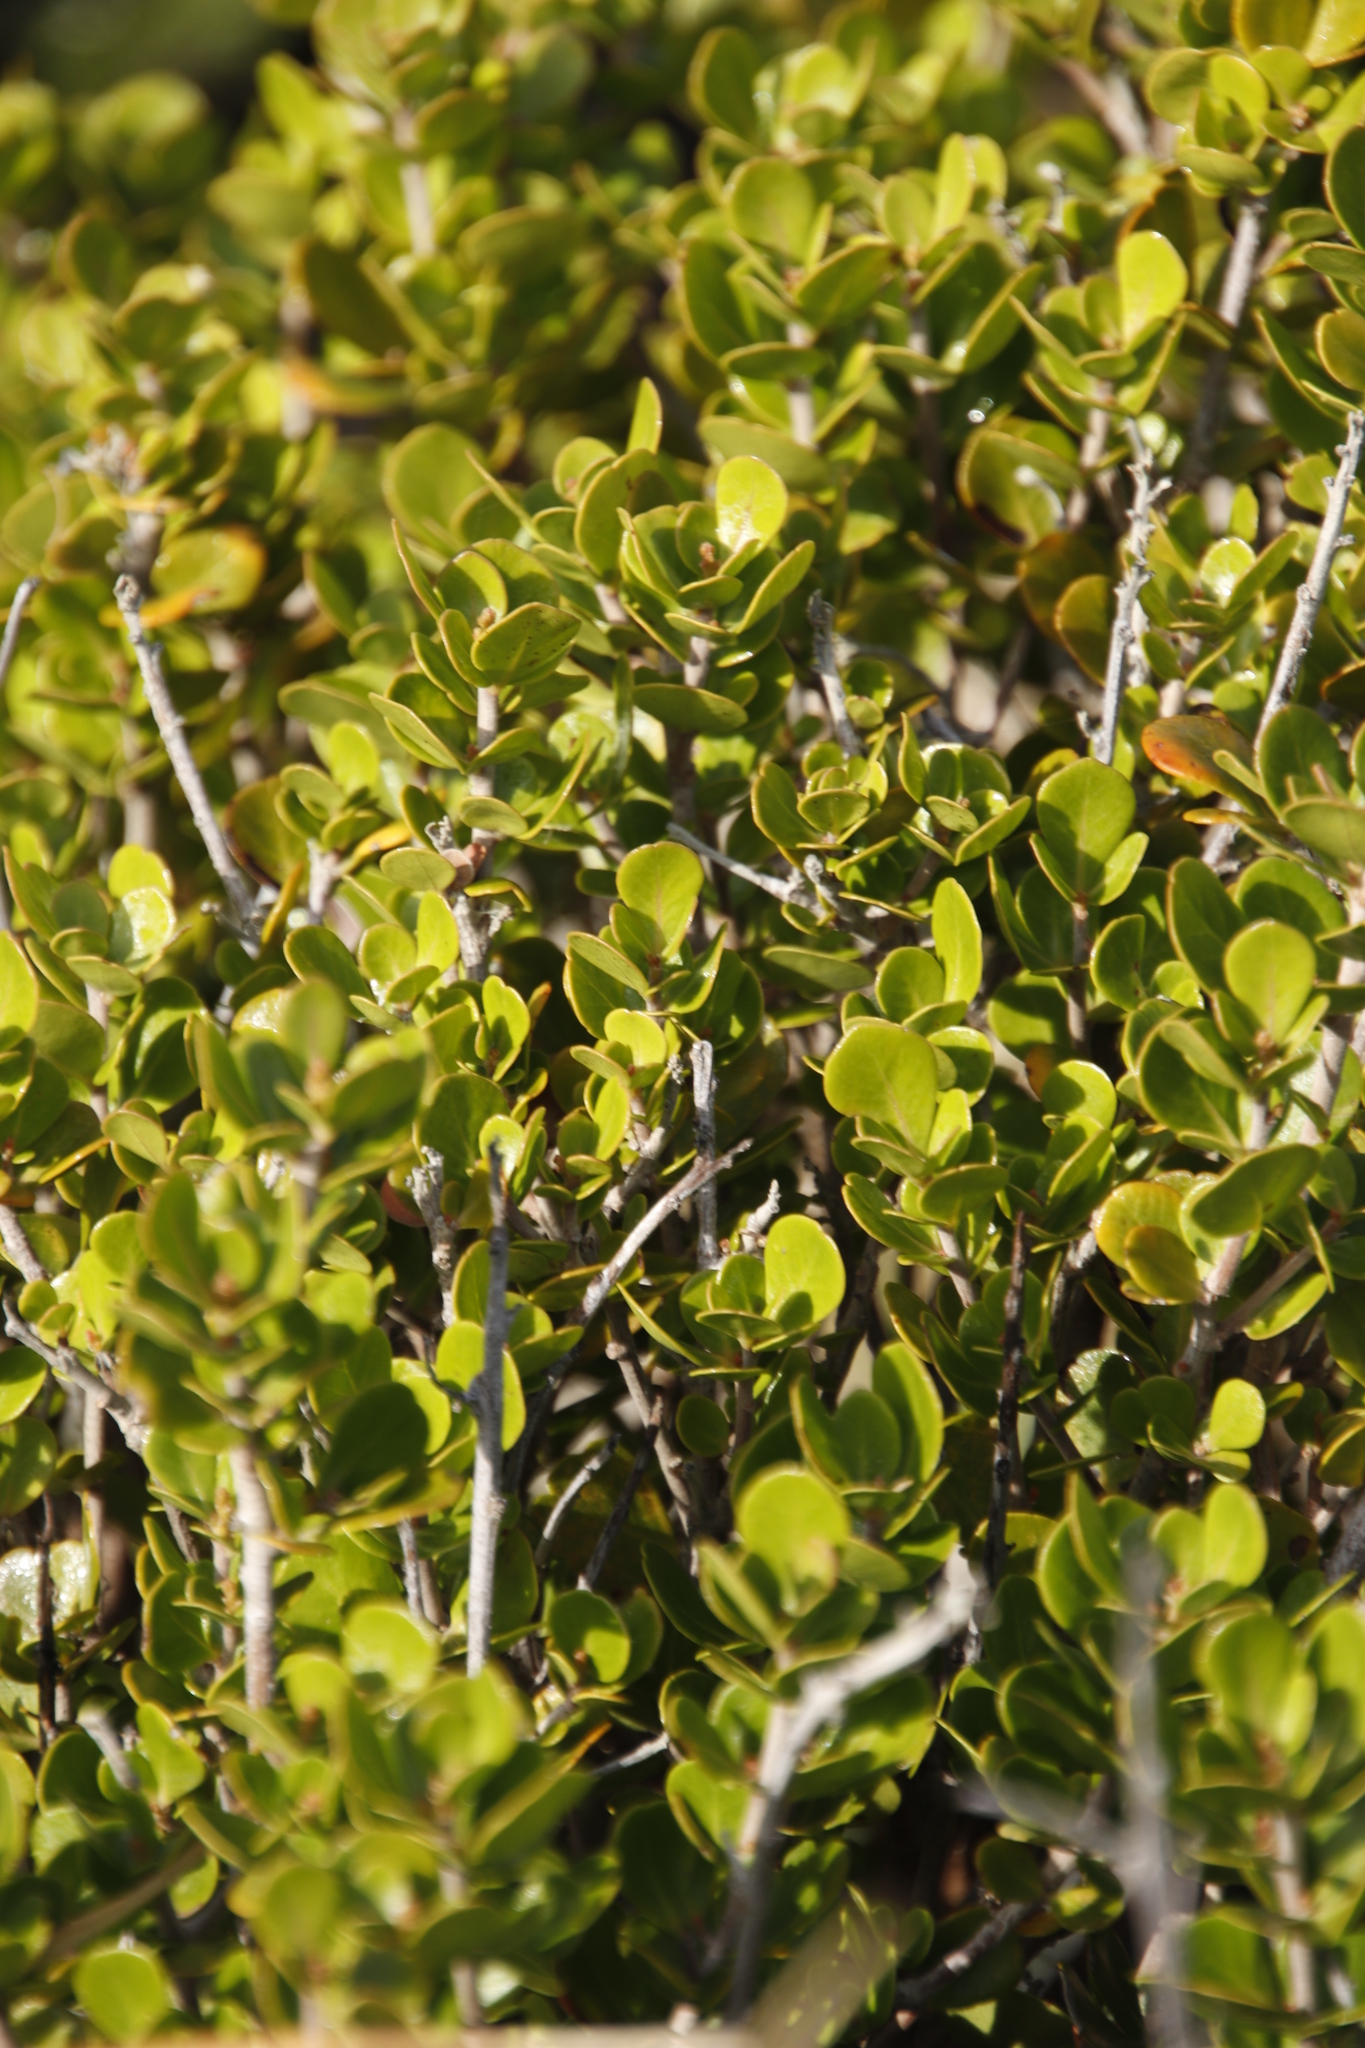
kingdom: Plantae
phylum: Tracheophyta
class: Magnoliopsida
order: Sapindales
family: Anacardiaceae
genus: Searsia
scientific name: Searsia lucida
